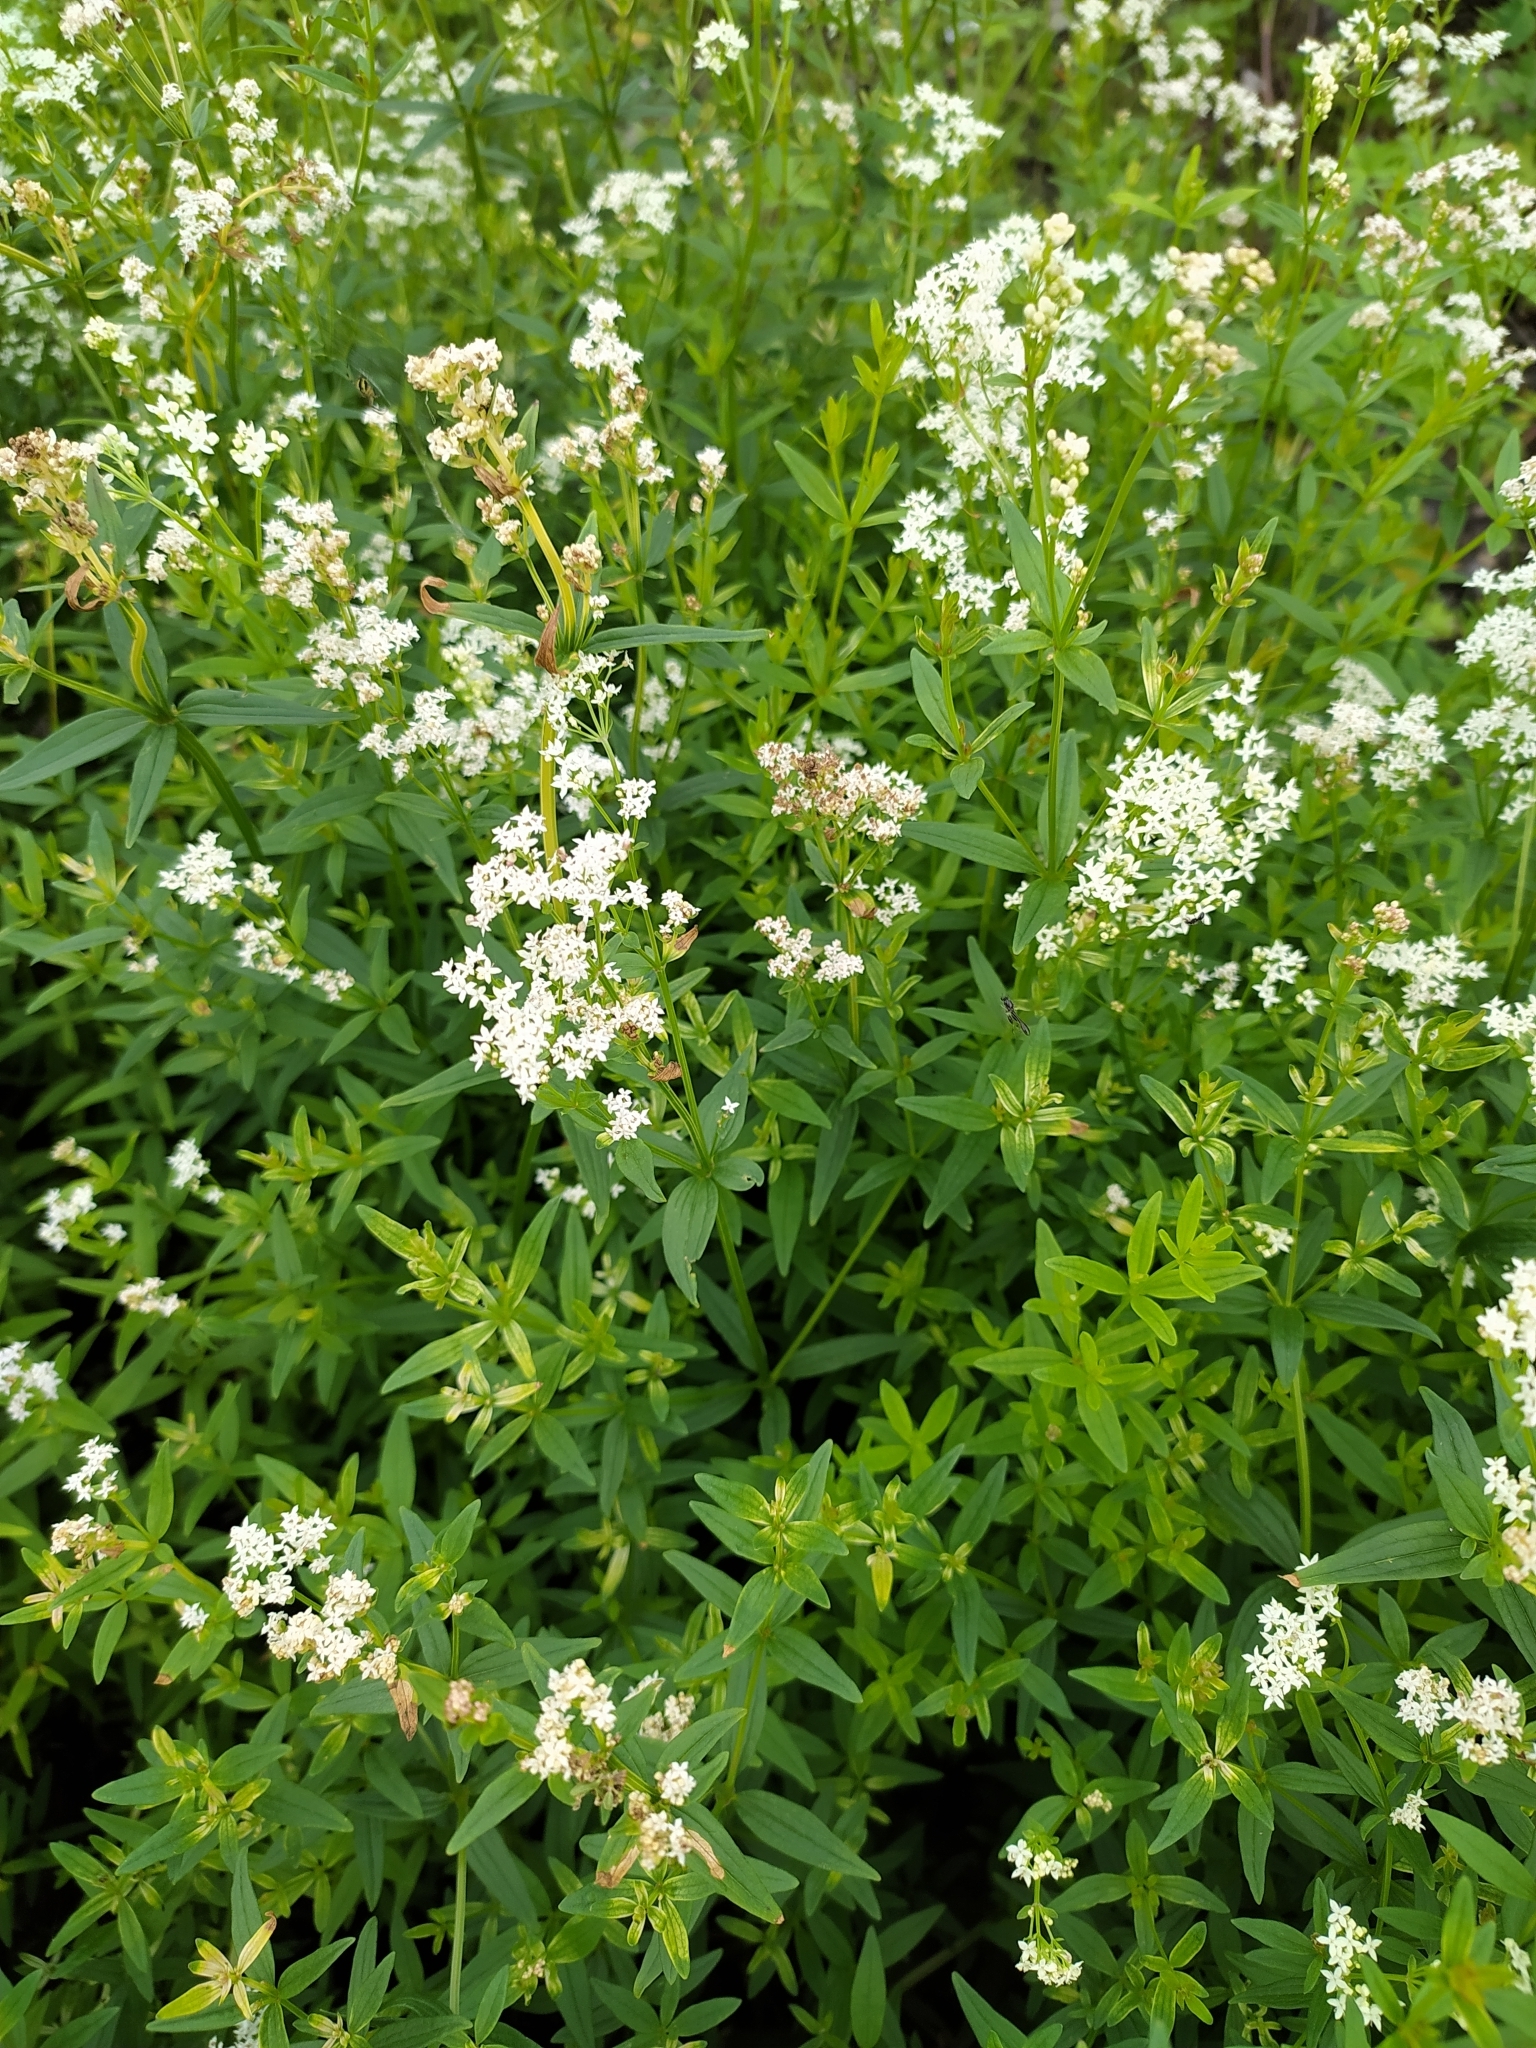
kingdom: Plantae
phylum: Tracheophyta
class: Magnoliopsida
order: Gentianales
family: Rubiaceae
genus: Galium
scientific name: Galium boreale
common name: Northern bedstraw
